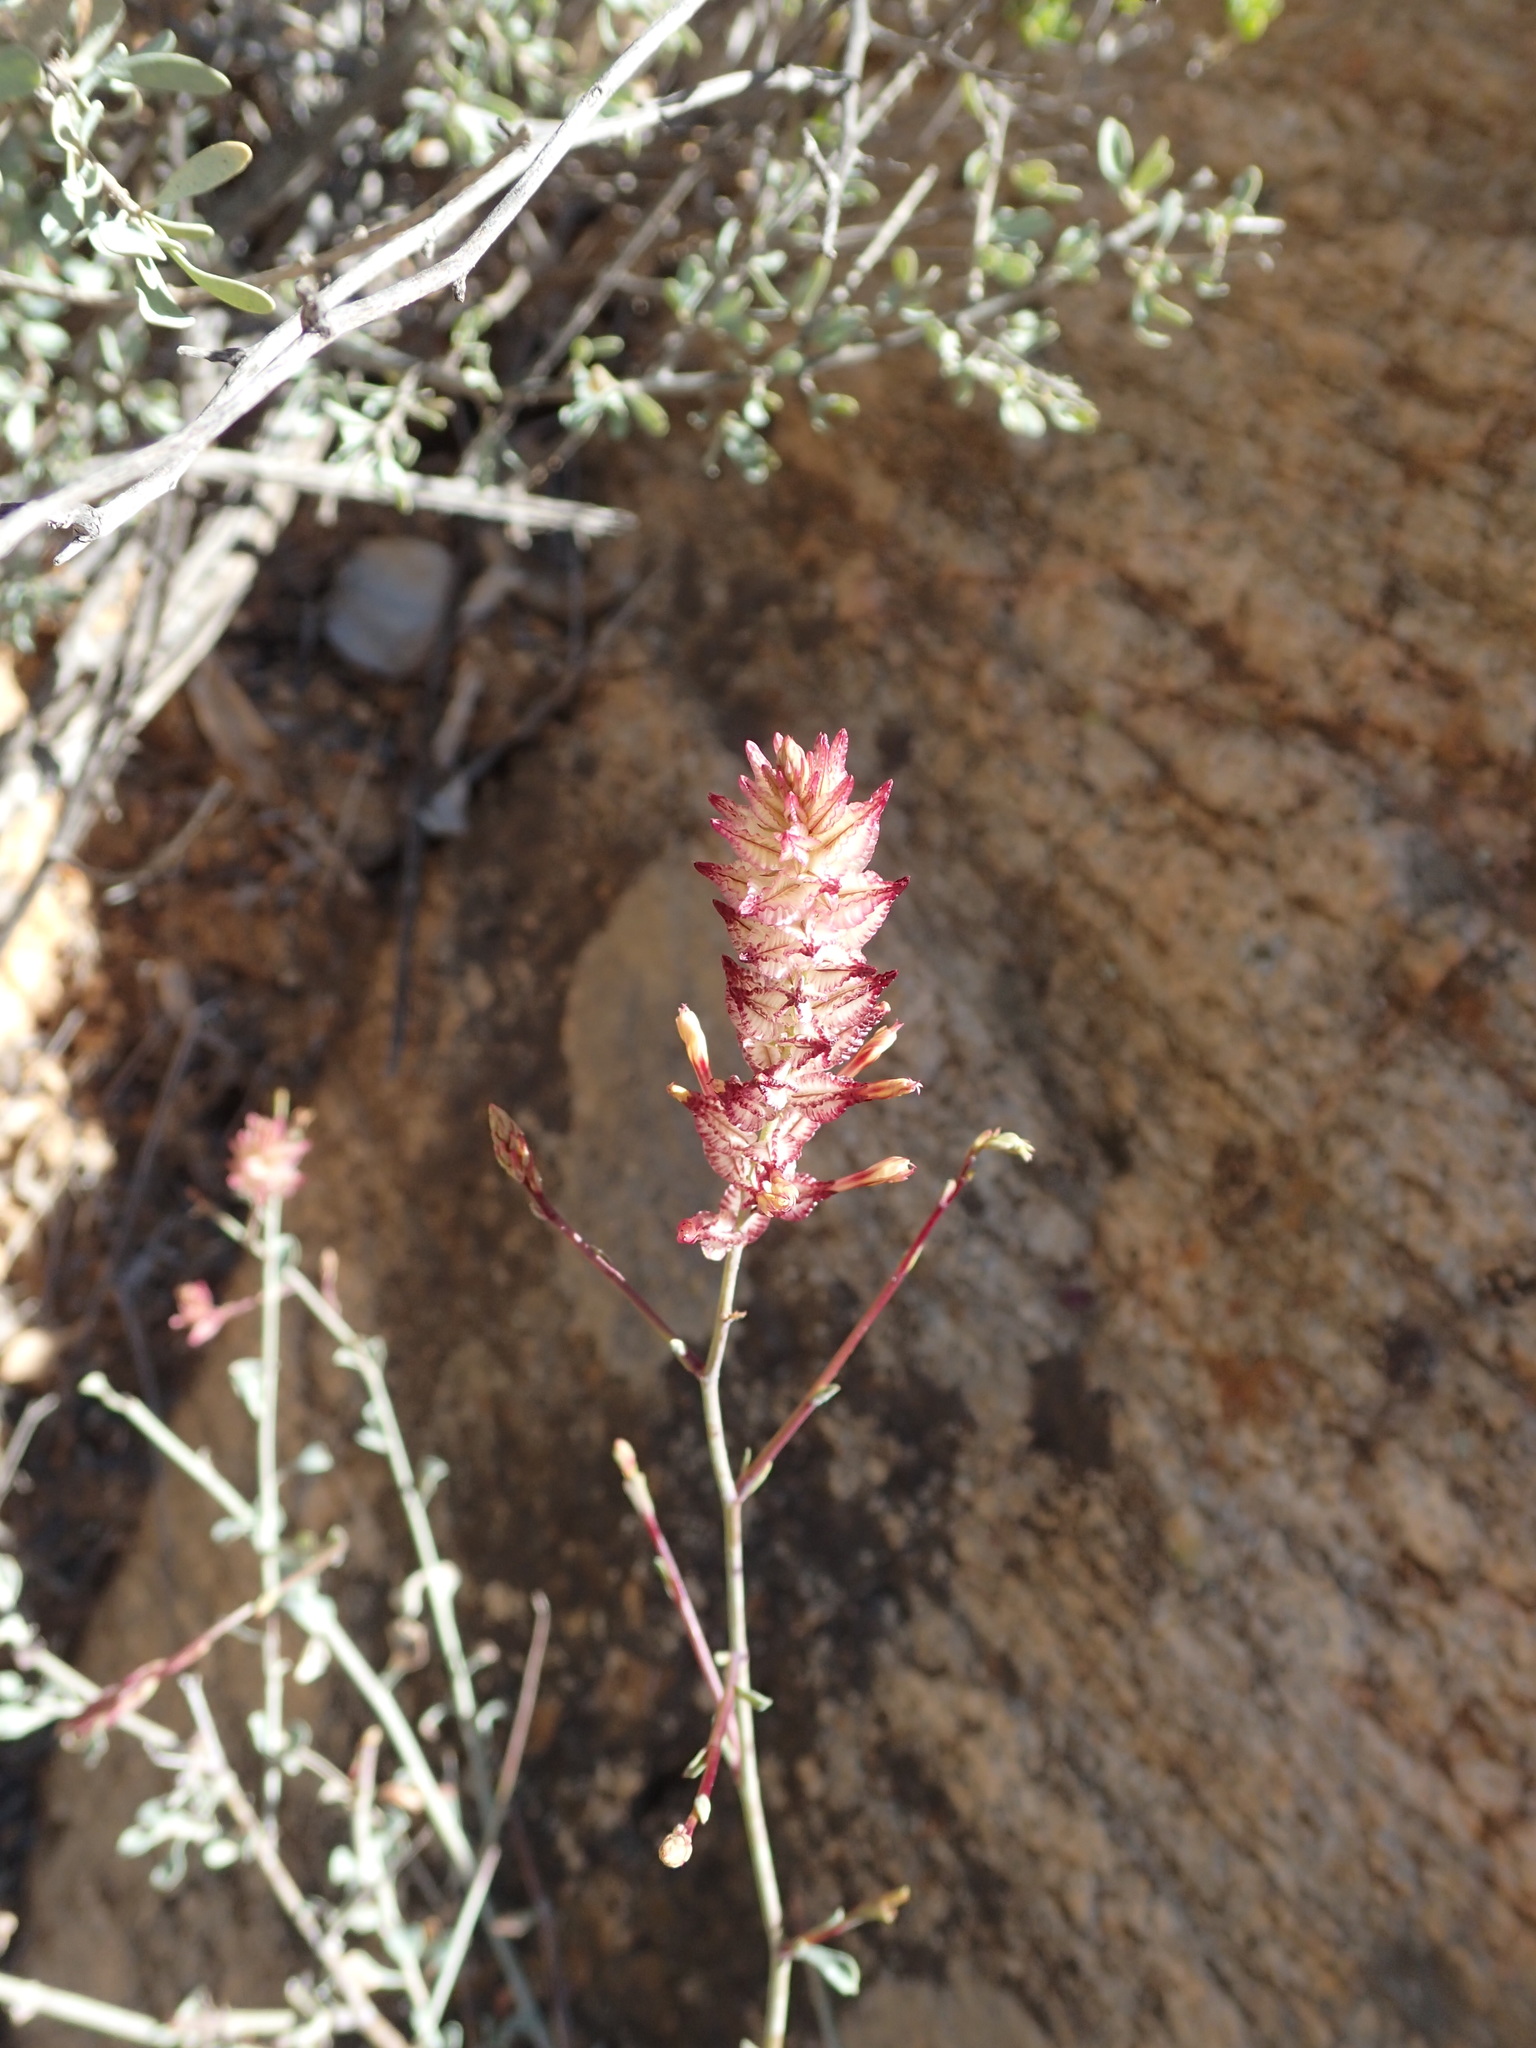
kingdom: Plantae
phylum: Tracheophyta
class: Magnoliopsida
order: Caryophyllales
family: Plumbaginaceae
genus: Dyerophytum
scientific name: Dyerophytum africanum
